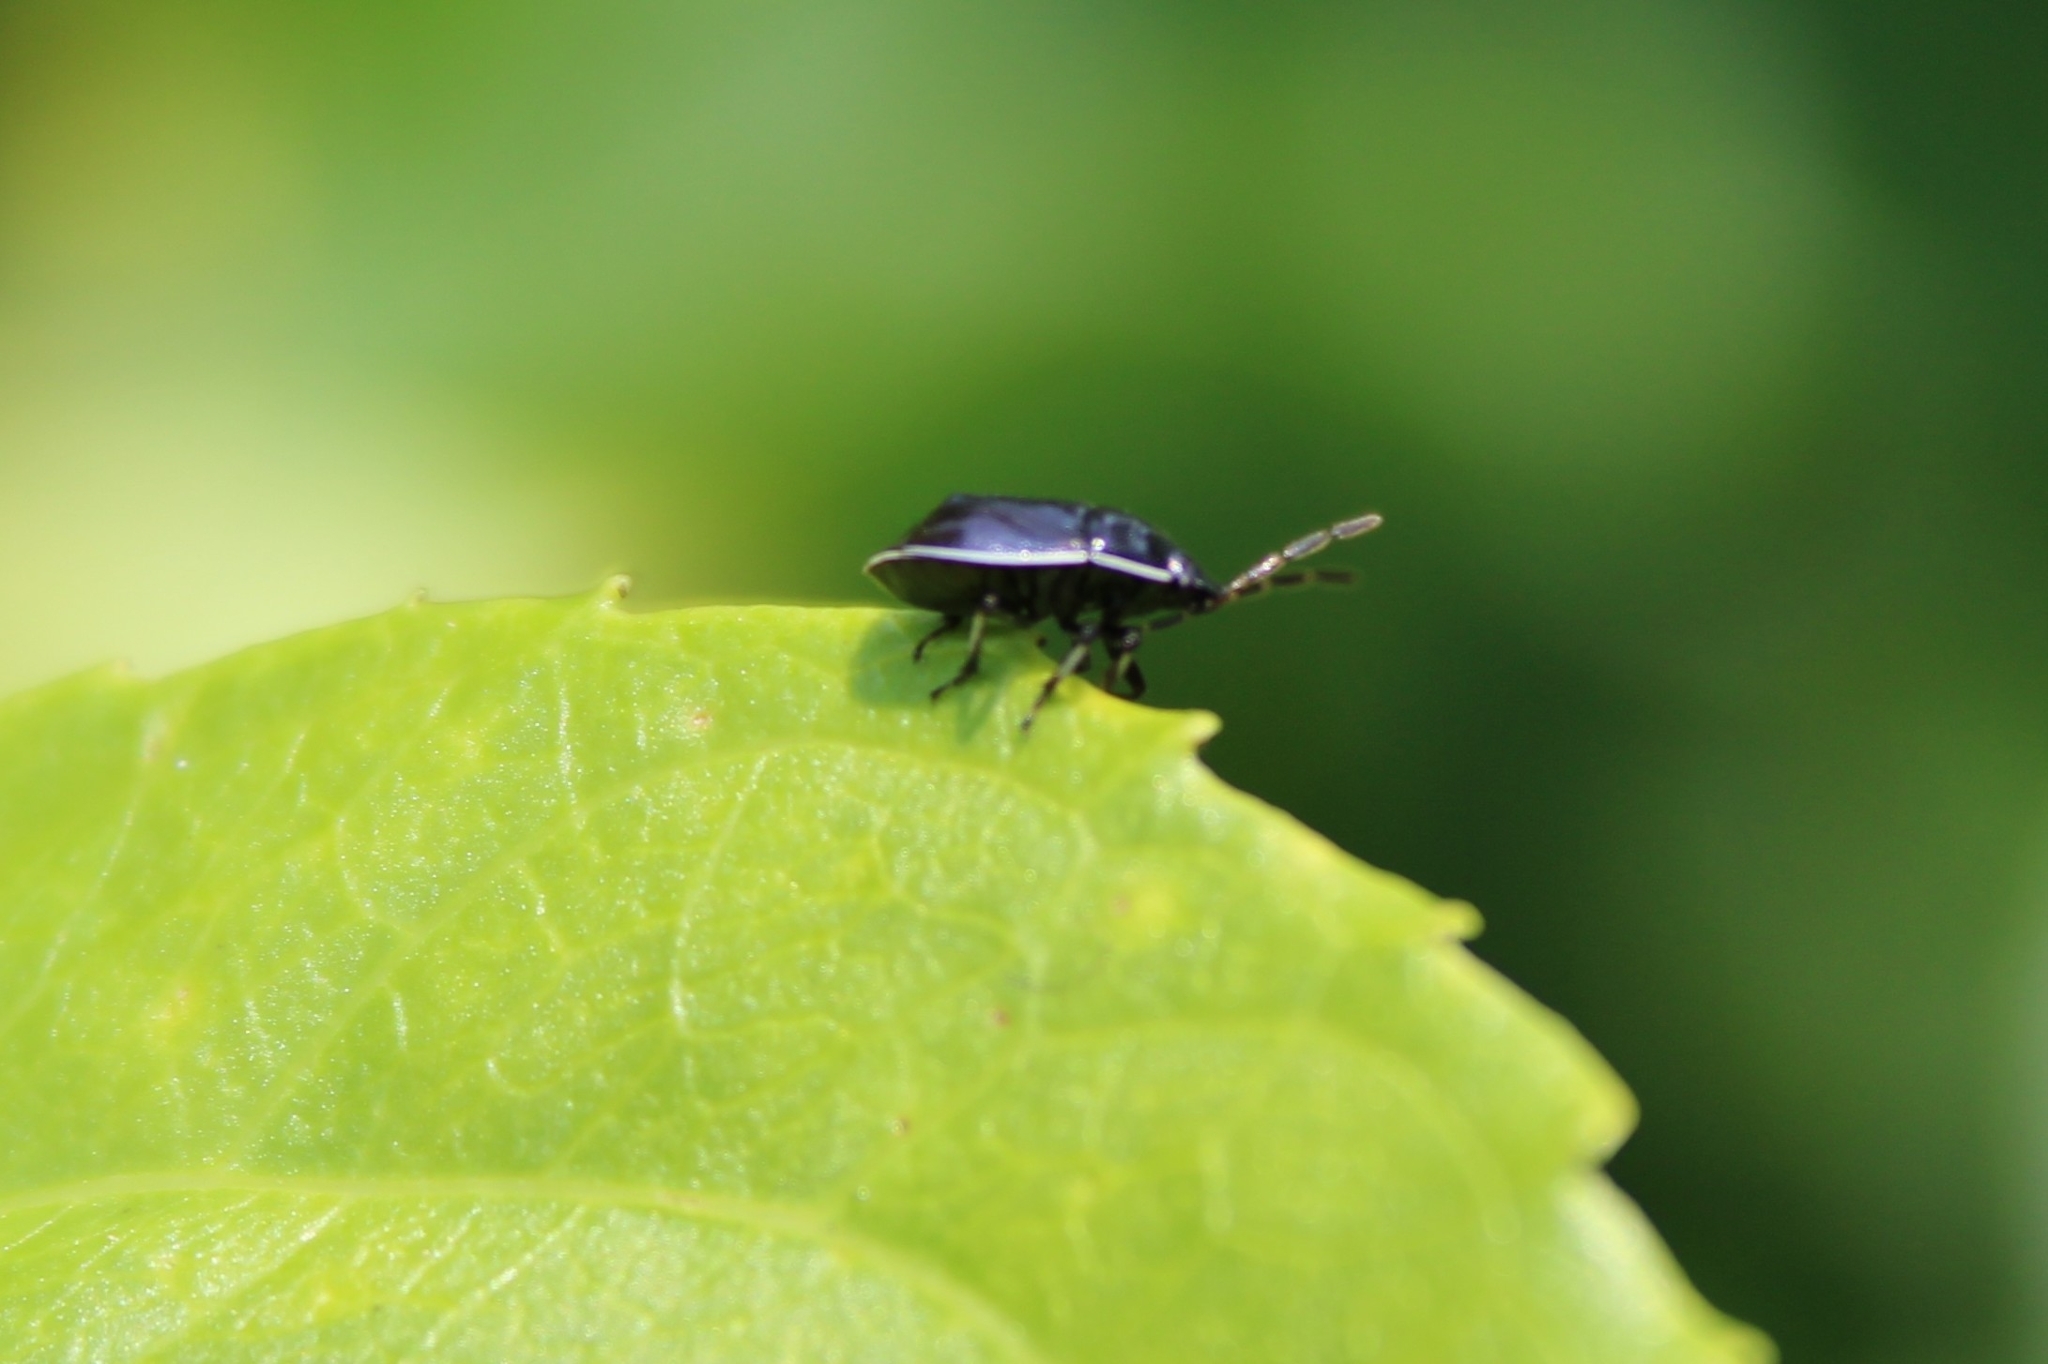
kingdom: Animalia
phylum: Arthropoda
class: Insecta
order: Hemiptera
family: Cydnidae
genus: Sehirus
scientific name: Sehirus cinctus
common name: White-margined burrower bug
